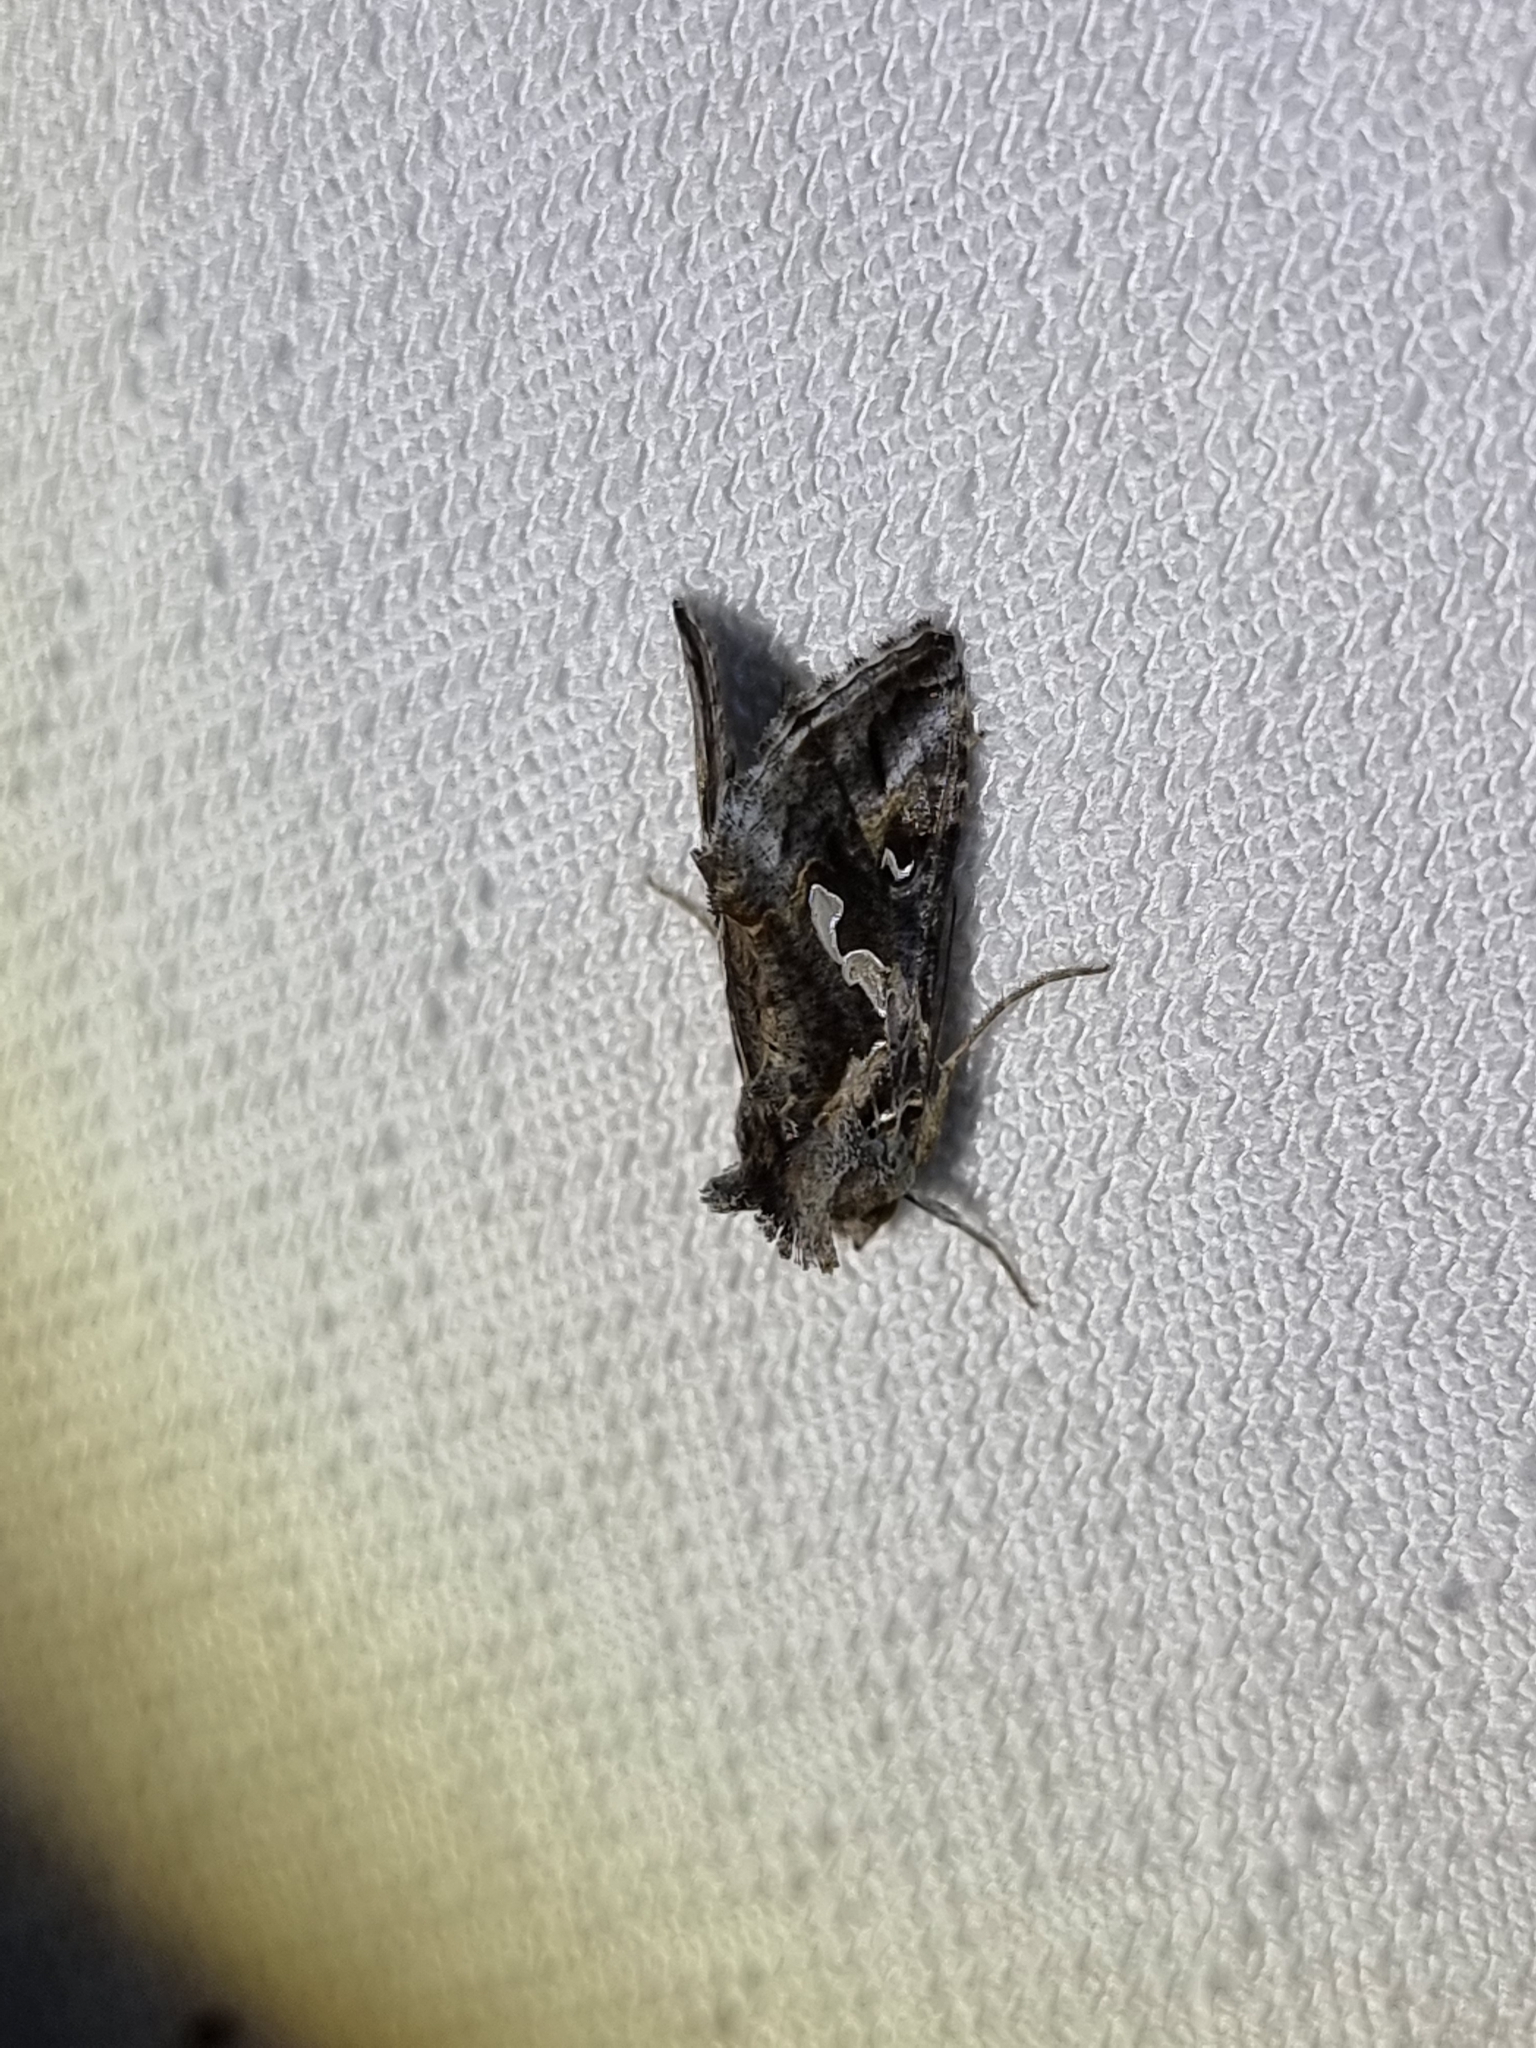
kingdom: Animalia
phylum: Arthropoda
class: Insecta
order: Lepidoptera
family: Noctuidae
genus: Chrysodeixis
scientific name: Chrysodeixis argentifera
